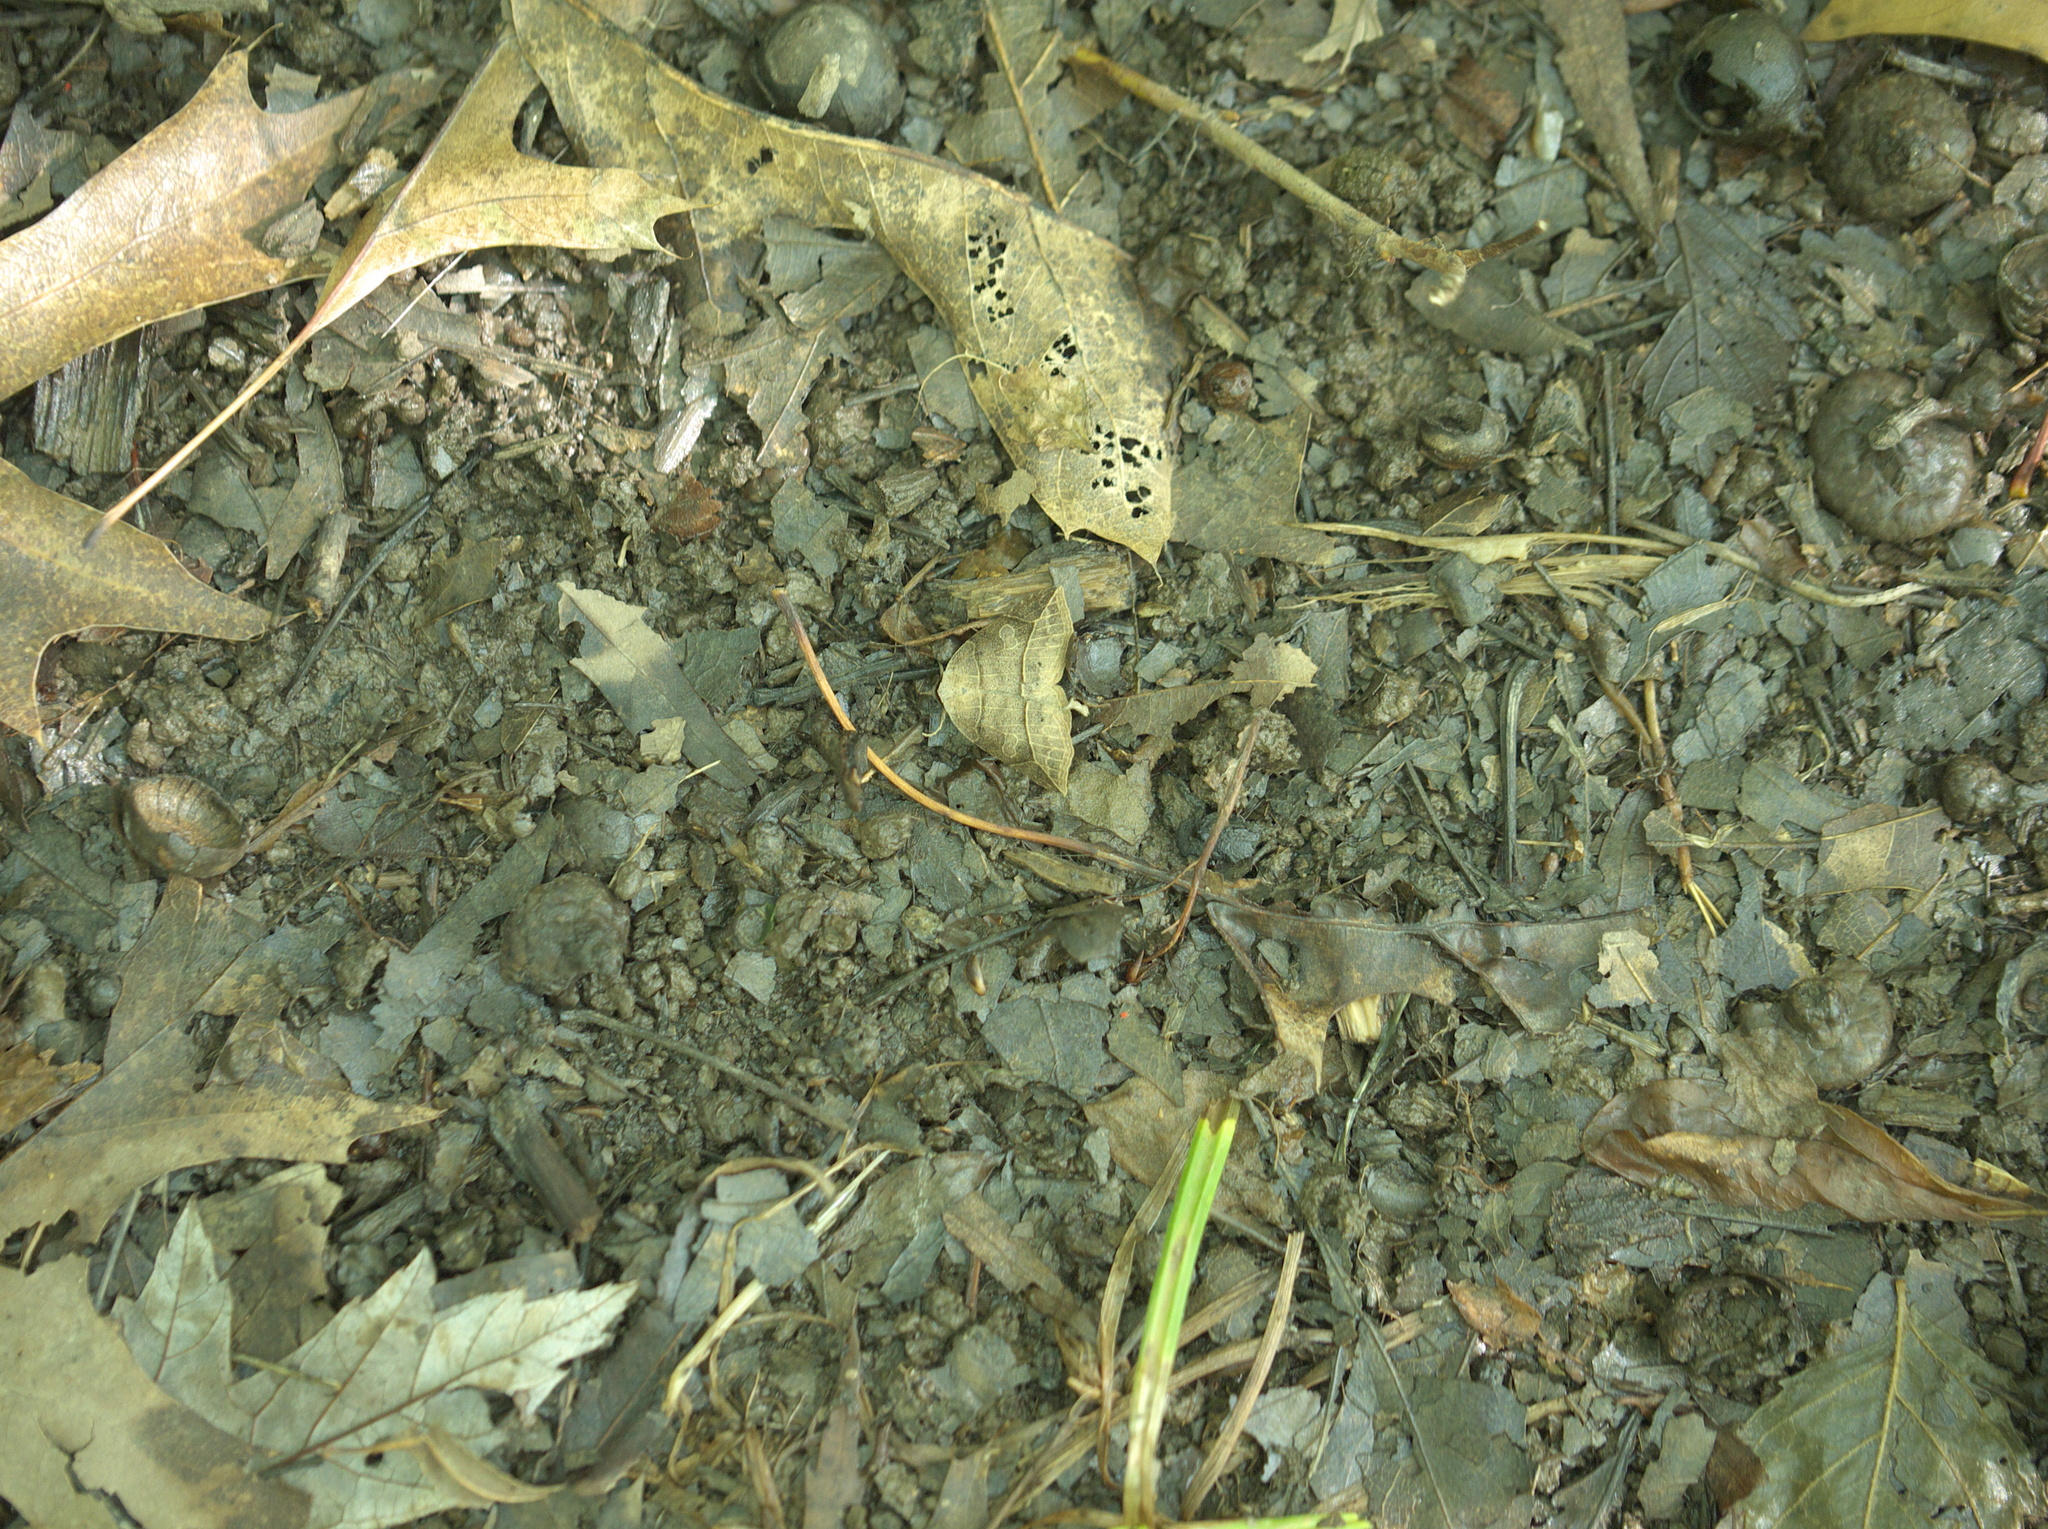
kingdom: Animalia
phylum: Arthropoda
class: Insecta
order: Lepidoptera
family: Erebidae
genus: Isogona
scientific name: Isogona tenuis
